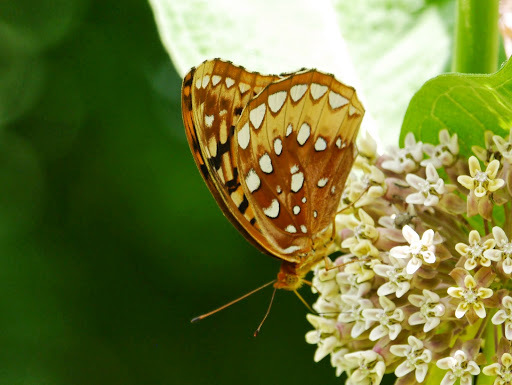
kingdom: Animalia
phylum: Arthropoda
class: Insecta
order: Lepidoptera
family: Nymphalidae
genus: Speyeria
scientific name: Speyeria cybele
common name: Great spangled fritillary
